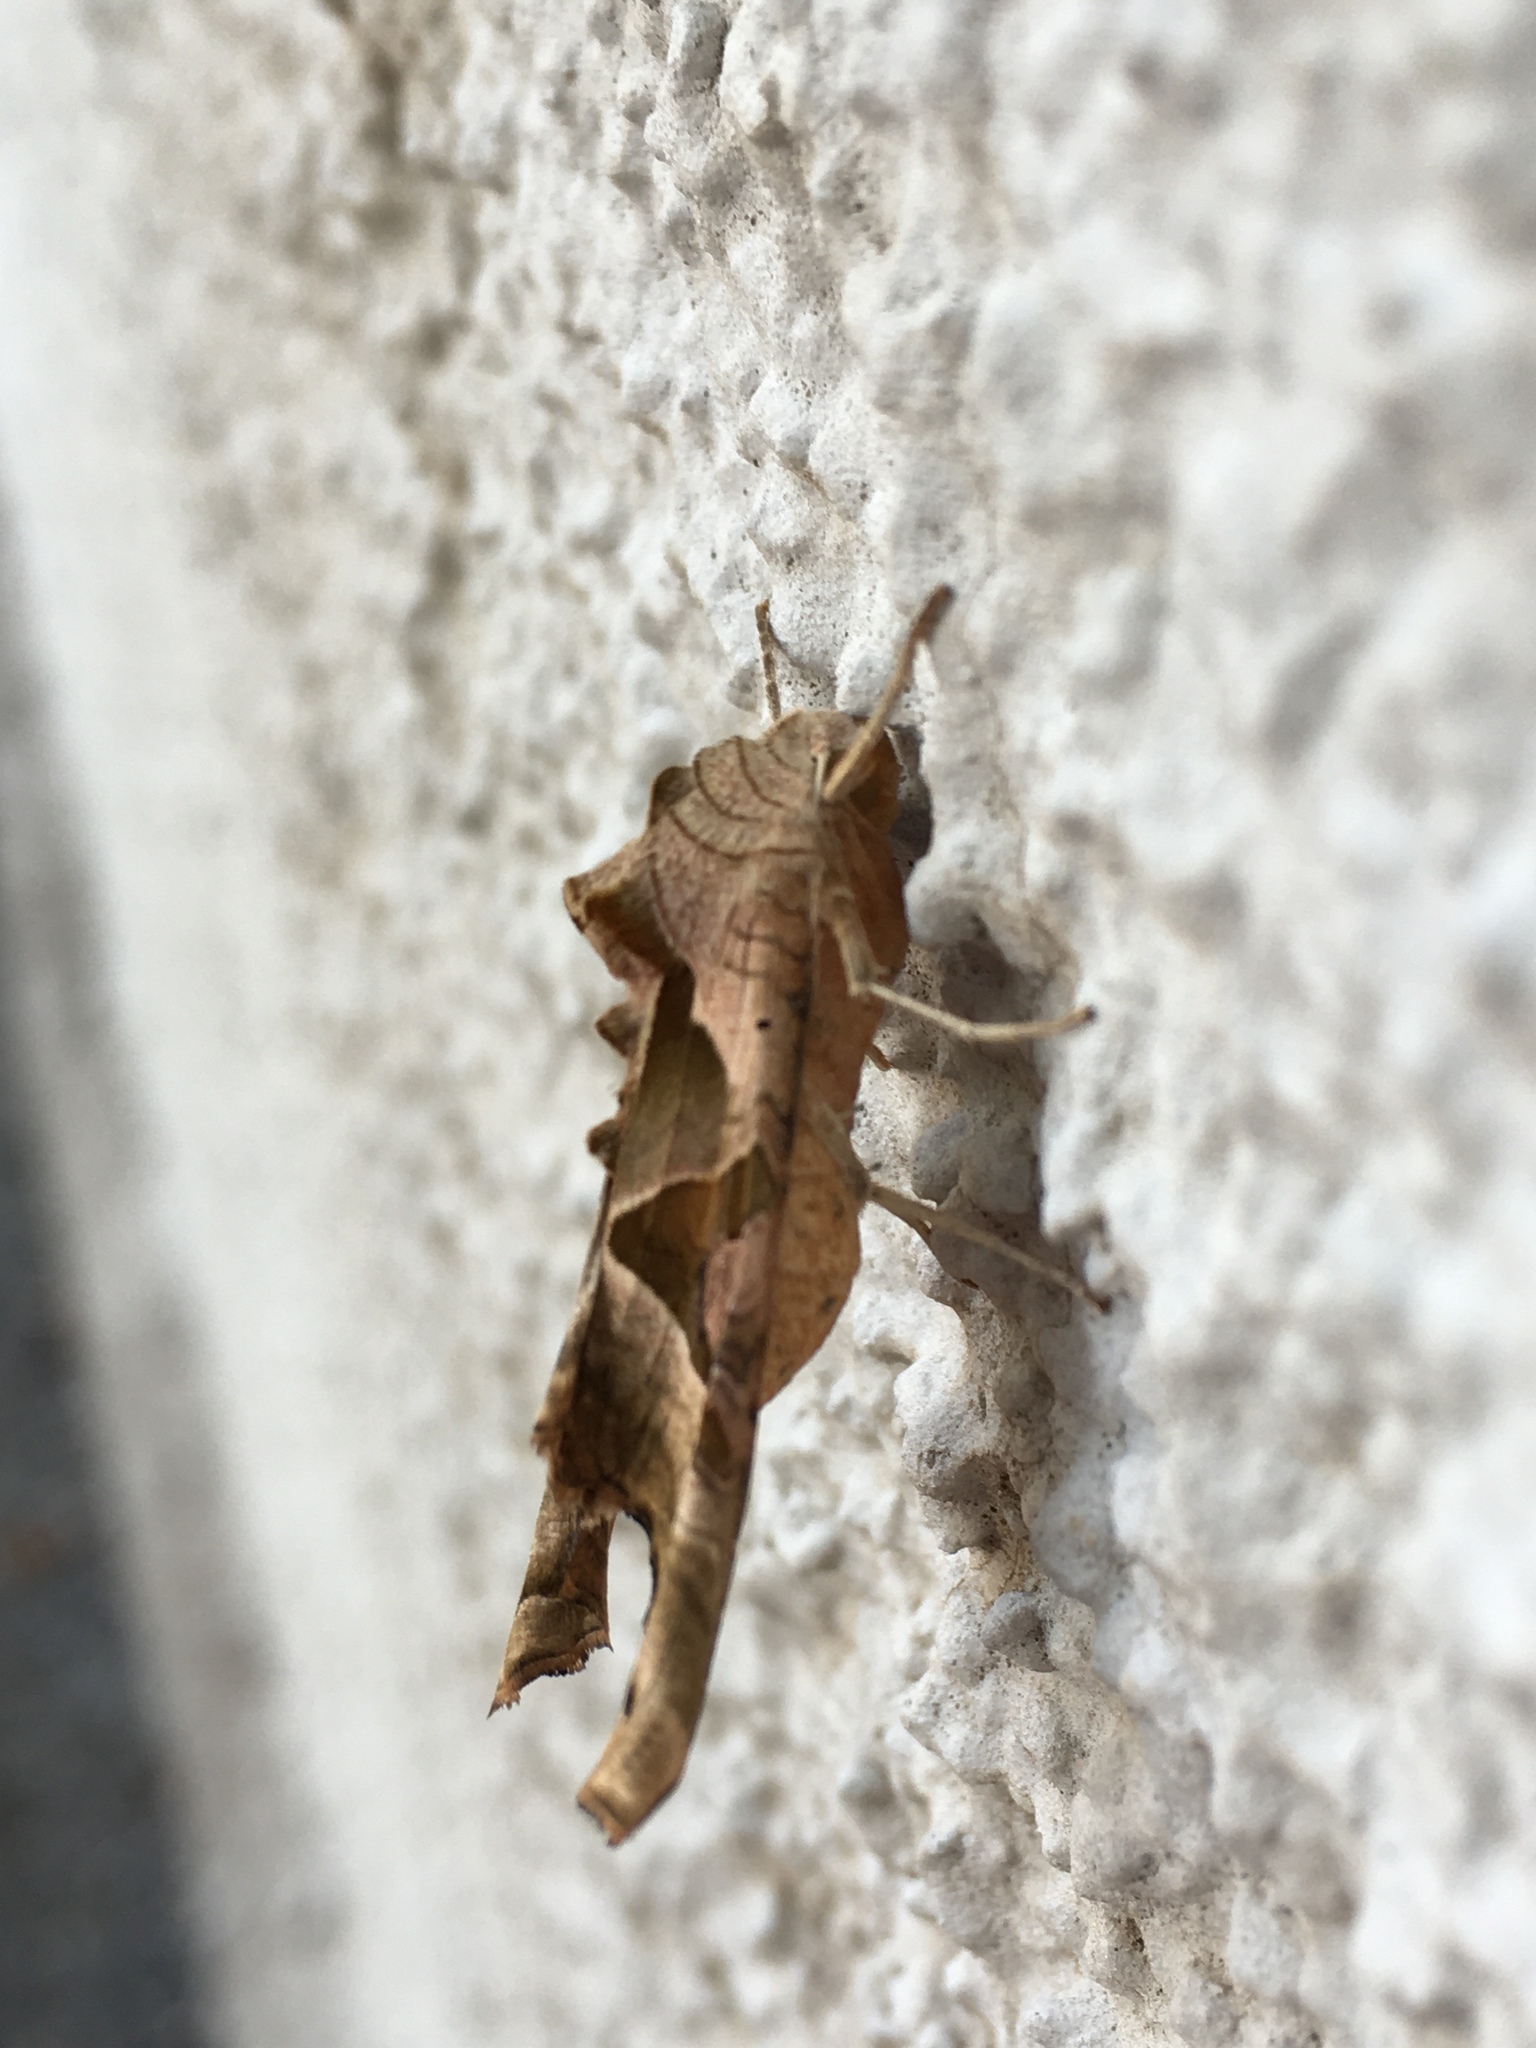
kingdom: Animalia
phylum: Arthropoda
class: Insecta
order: Lepidoptera
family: Noctuidae
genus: Phlogophora
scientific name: Phlogophora meticulosa
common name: Angle shades
